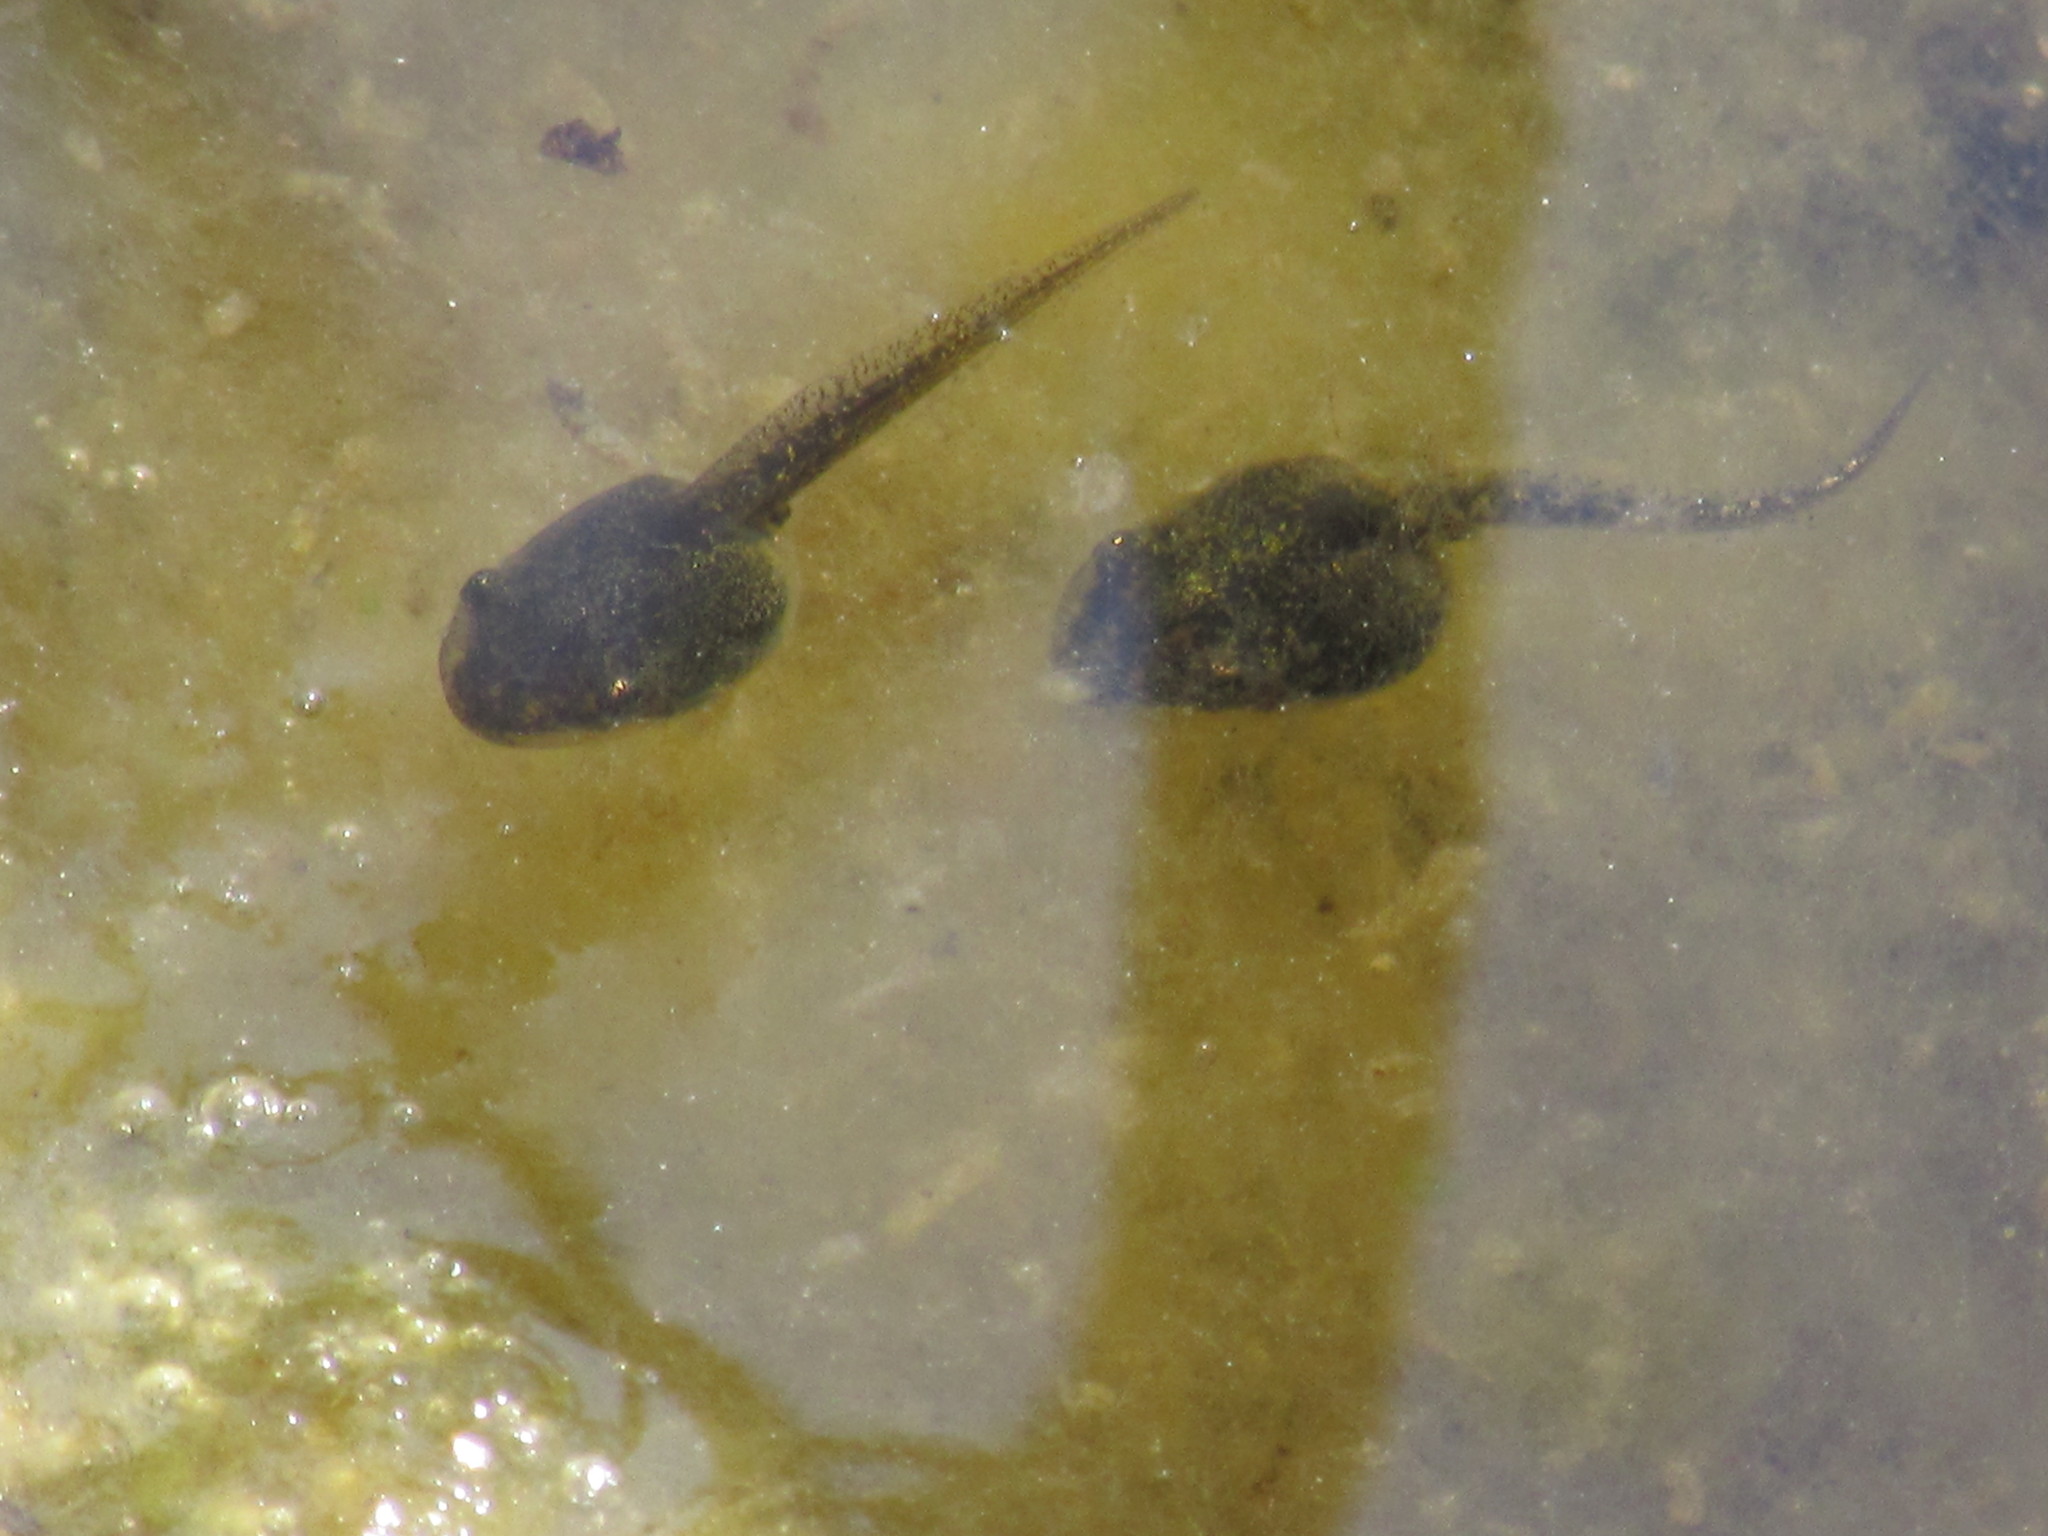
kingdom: Animalia
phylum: Chordata
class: Amphibia
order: Anura
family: Hylidae
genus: Pseudacris
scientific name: Pseudacris regilla
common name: Pacific chorus frog
